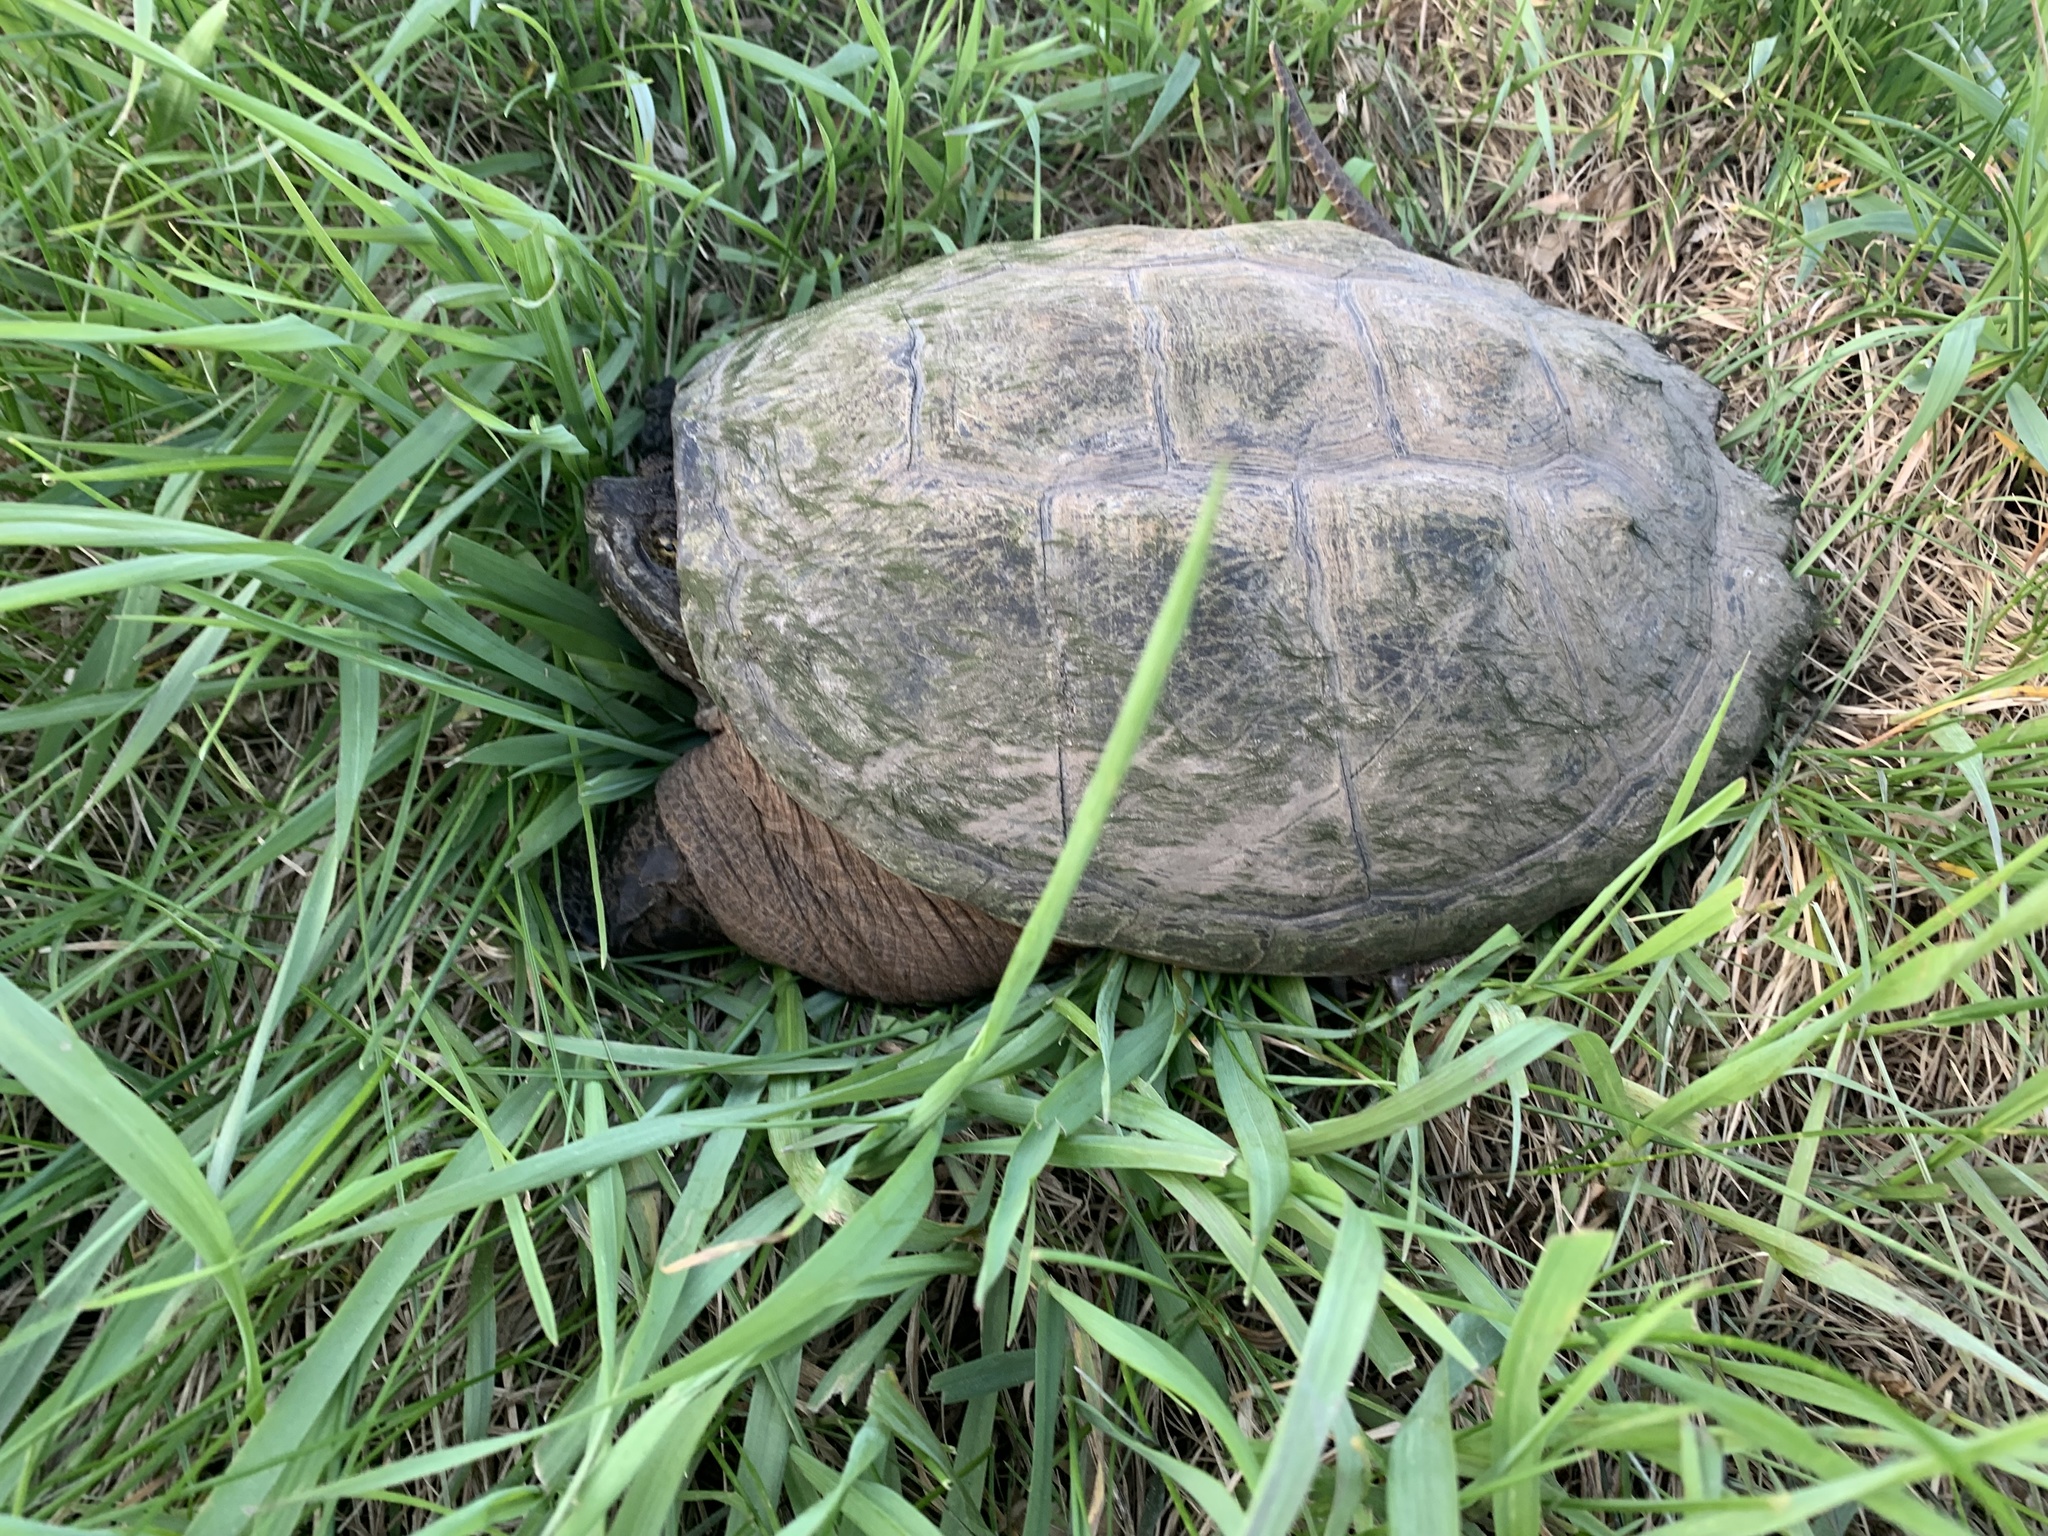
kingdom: Animalia
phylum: Chordata
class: Testudines
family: Chelydridae
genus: Chelydra
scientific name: Chelydra serpentina
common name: Common snapping turtle
